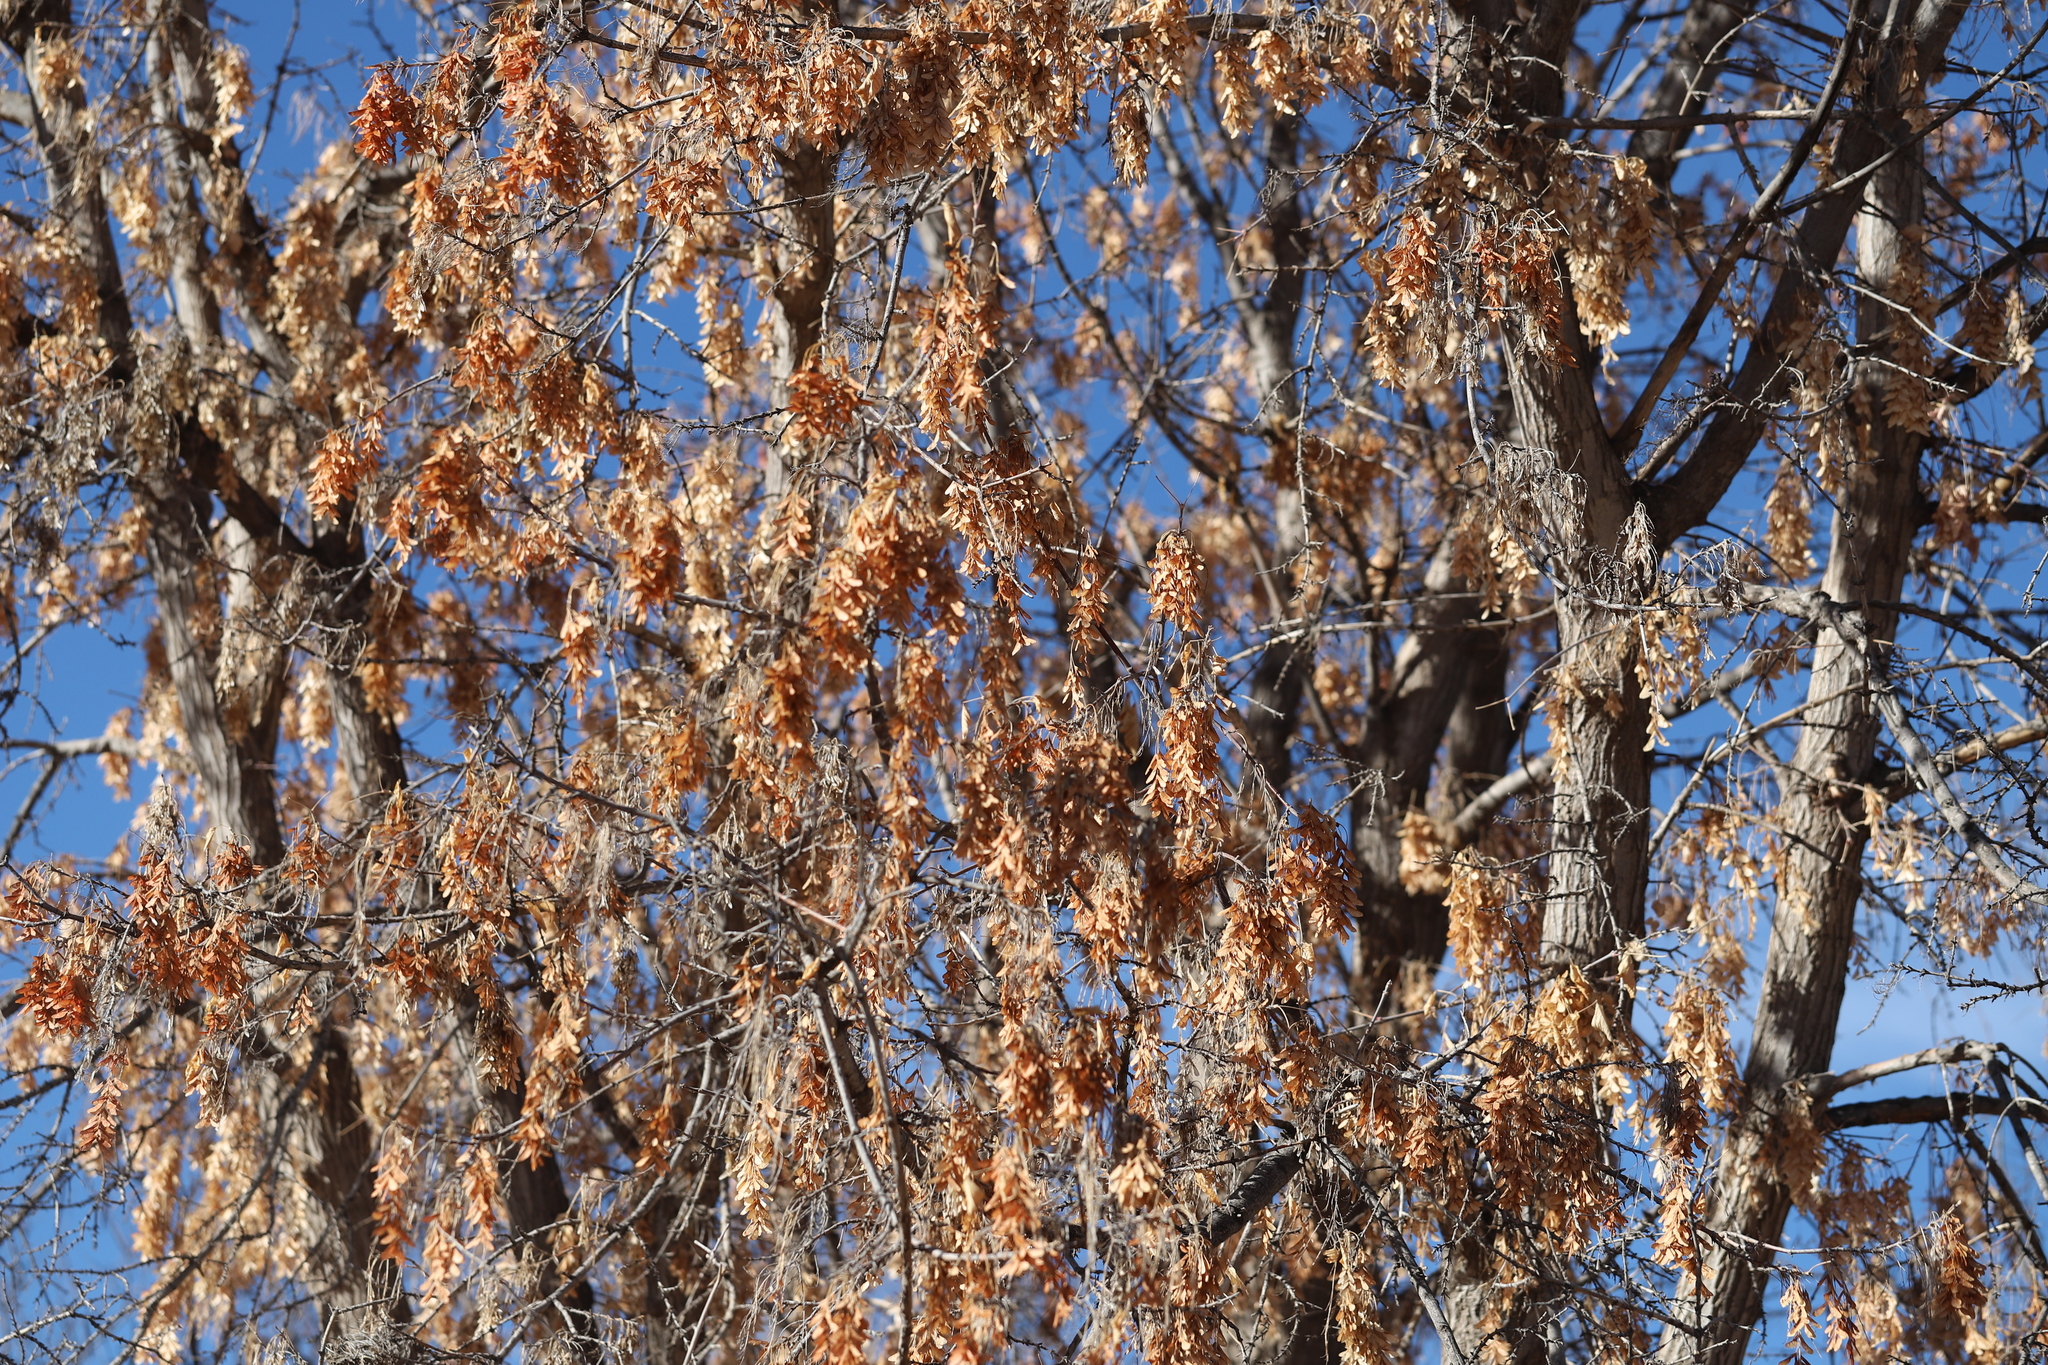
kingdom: Plantae
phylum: Tracheophyta
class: Magnoliopsida
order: Sapindales
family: Sapindaceae
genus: Acer
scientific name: Acer negundo
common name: Ashleaf maple
